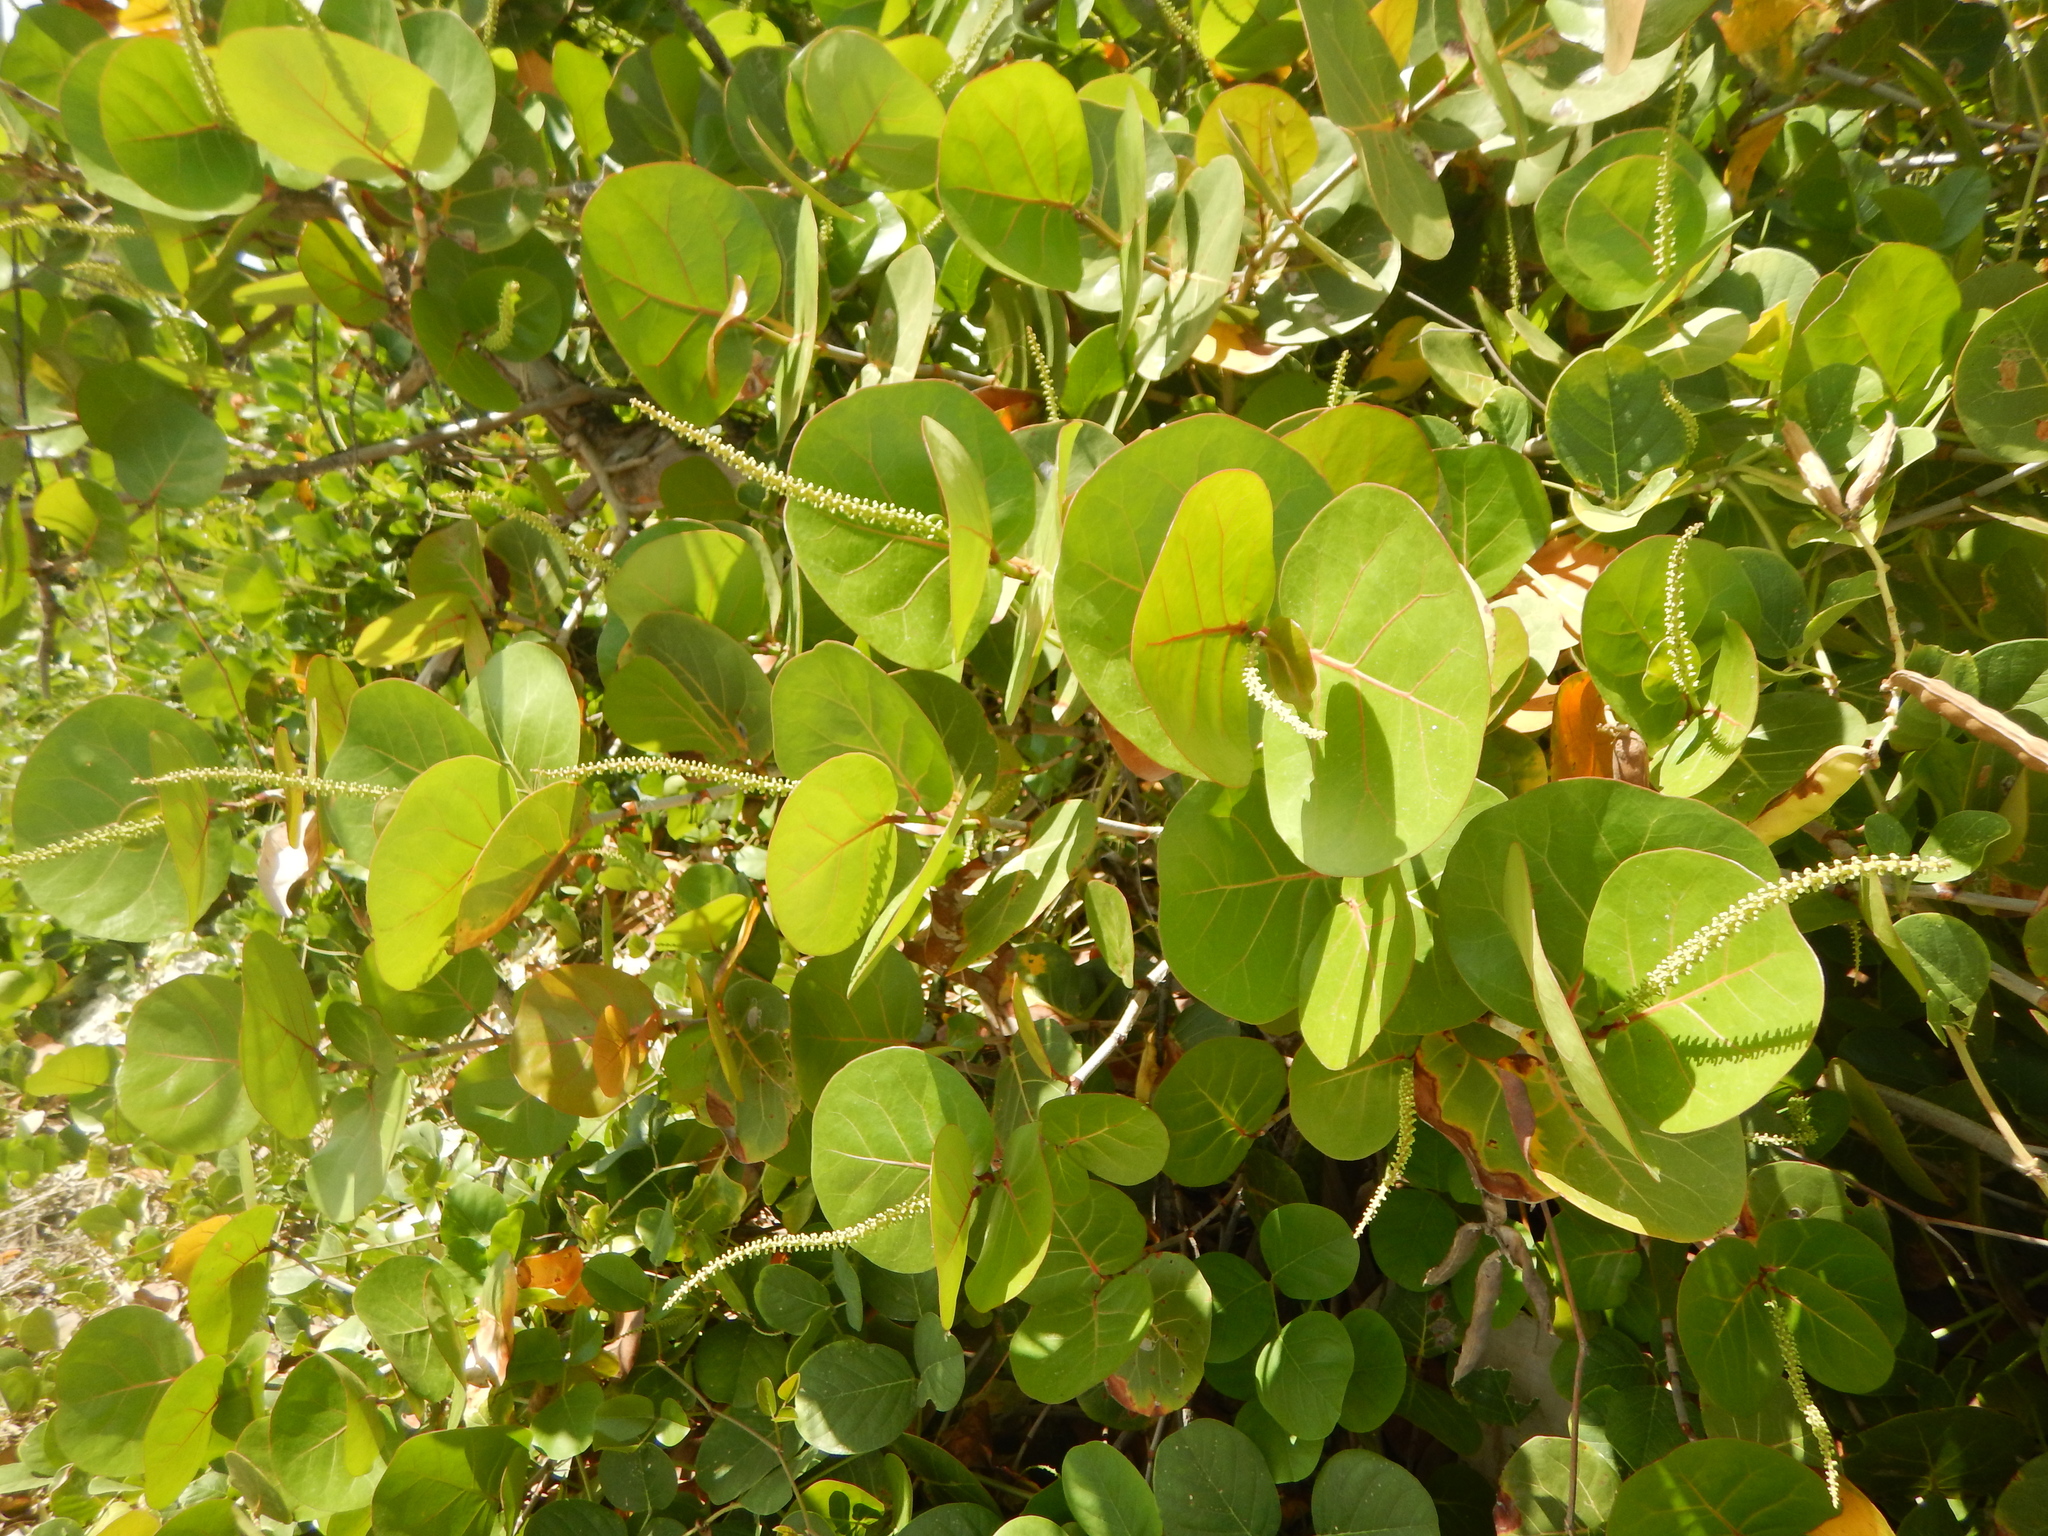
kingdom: Plantae
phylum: Tracheophyta
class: Magnoliopsida
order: Caryophyllales
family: Polygonaceae
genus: Coccoloba
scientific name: Coccoloba uvifera
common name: Seagrape
